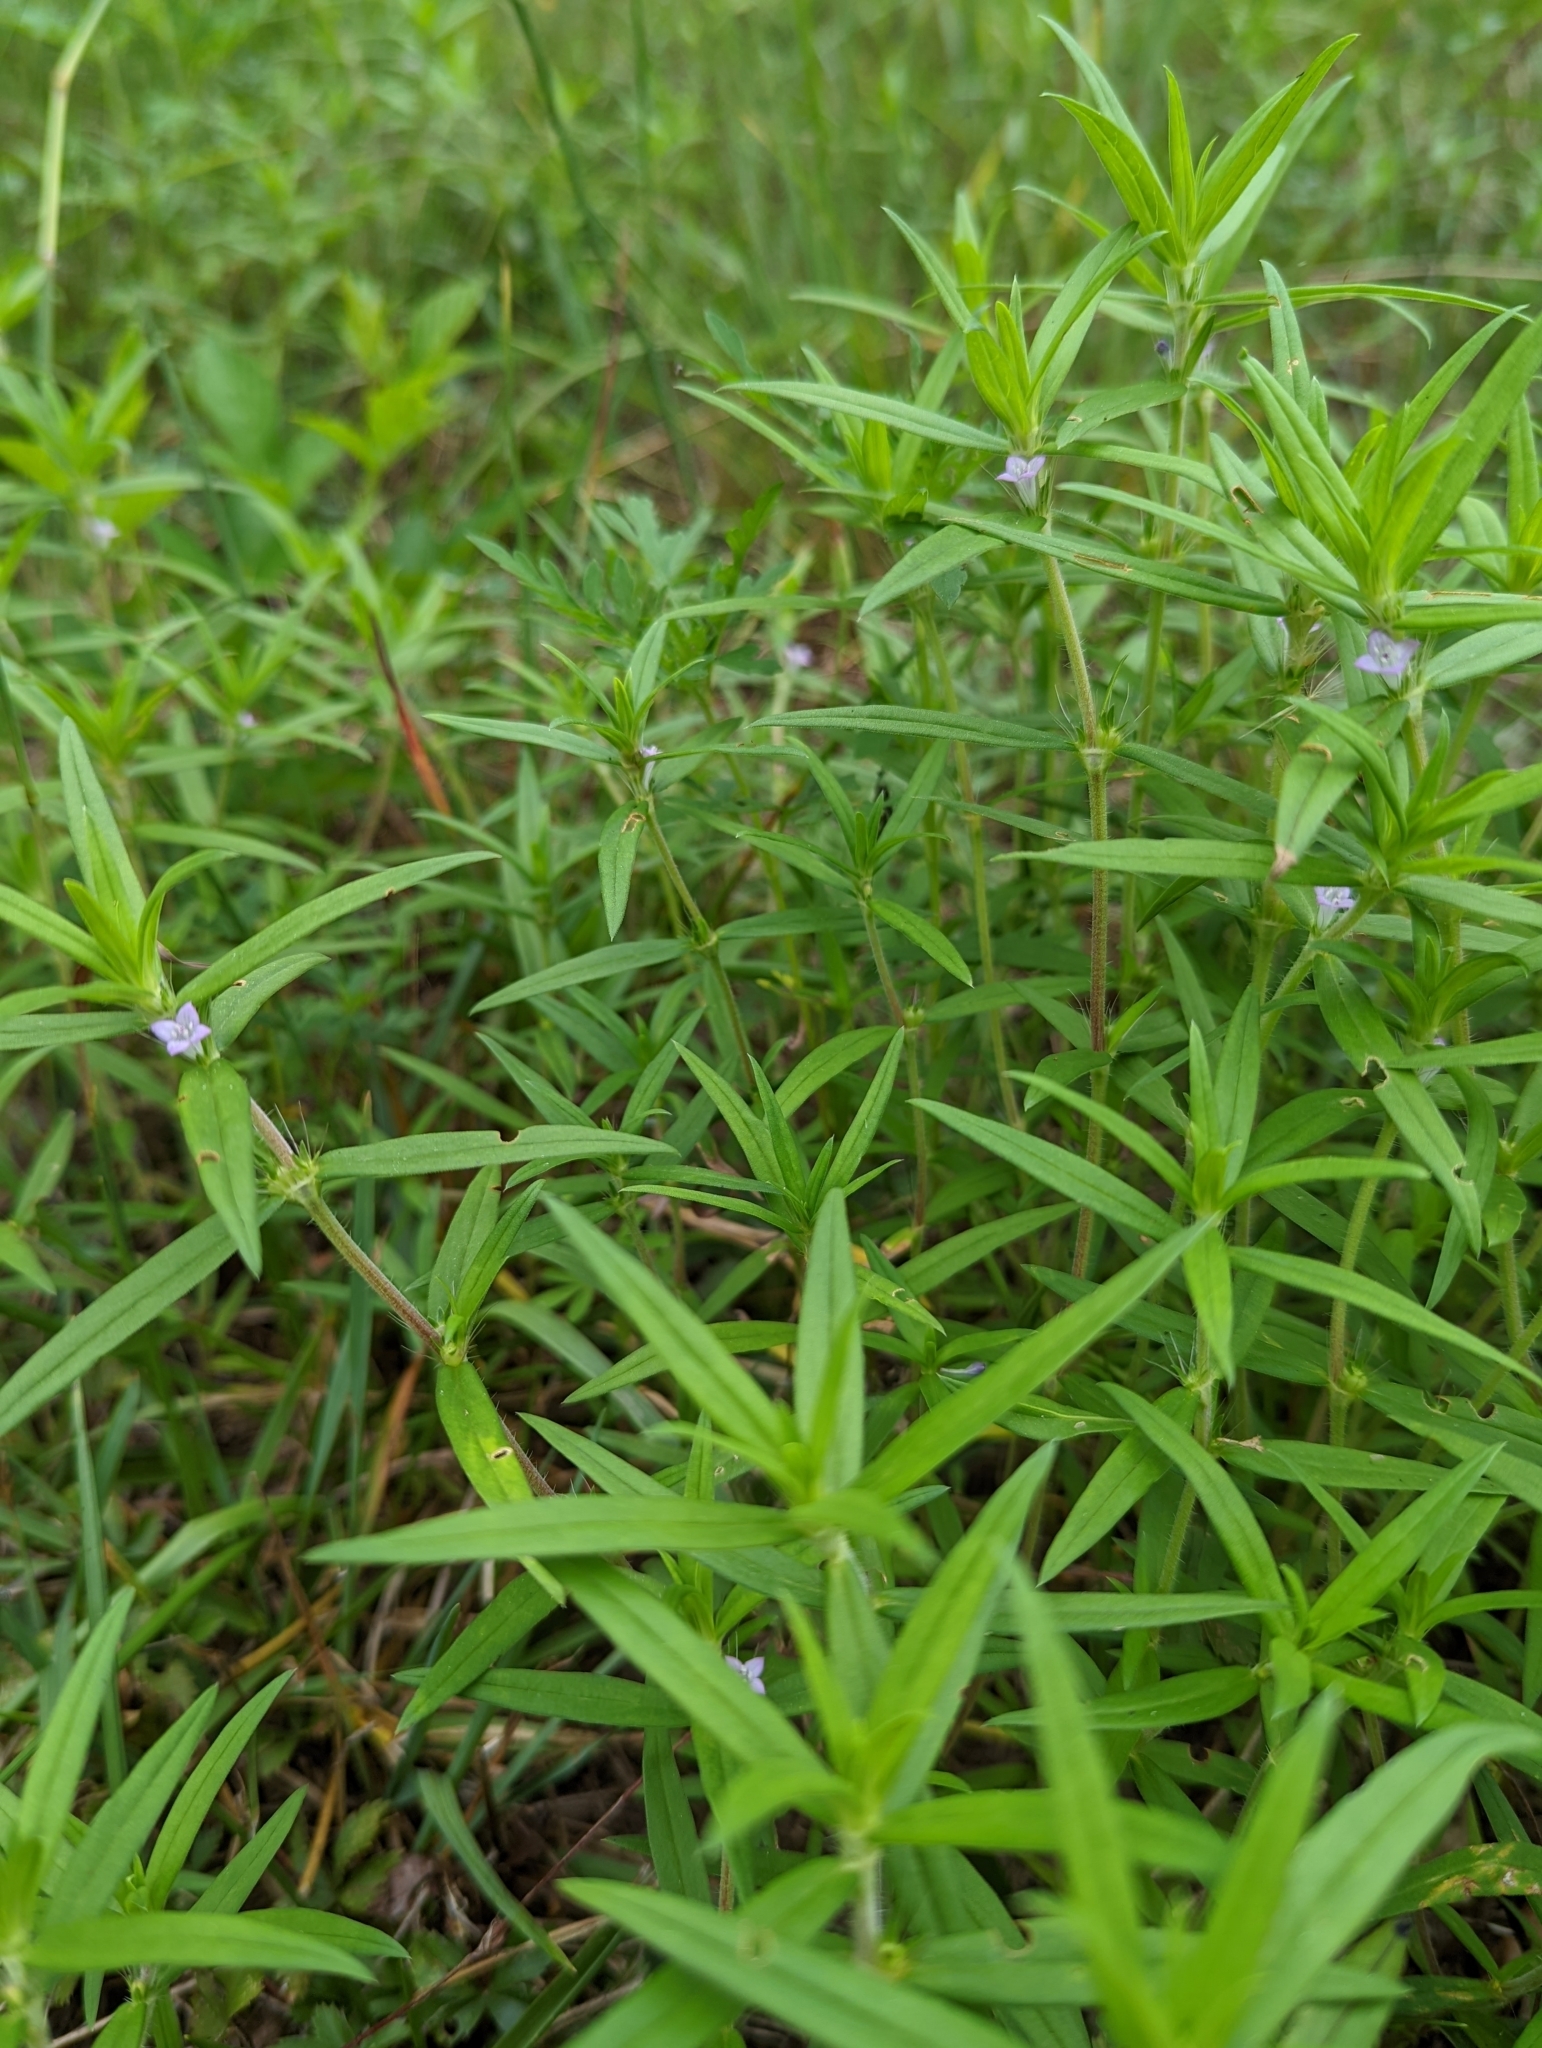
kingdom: Plantae
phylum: Tracheophyta
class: Magnoliopsida
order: Gentianales
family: Rubiaceae
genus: Hexasepalum
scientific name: Hexasepalum teres
